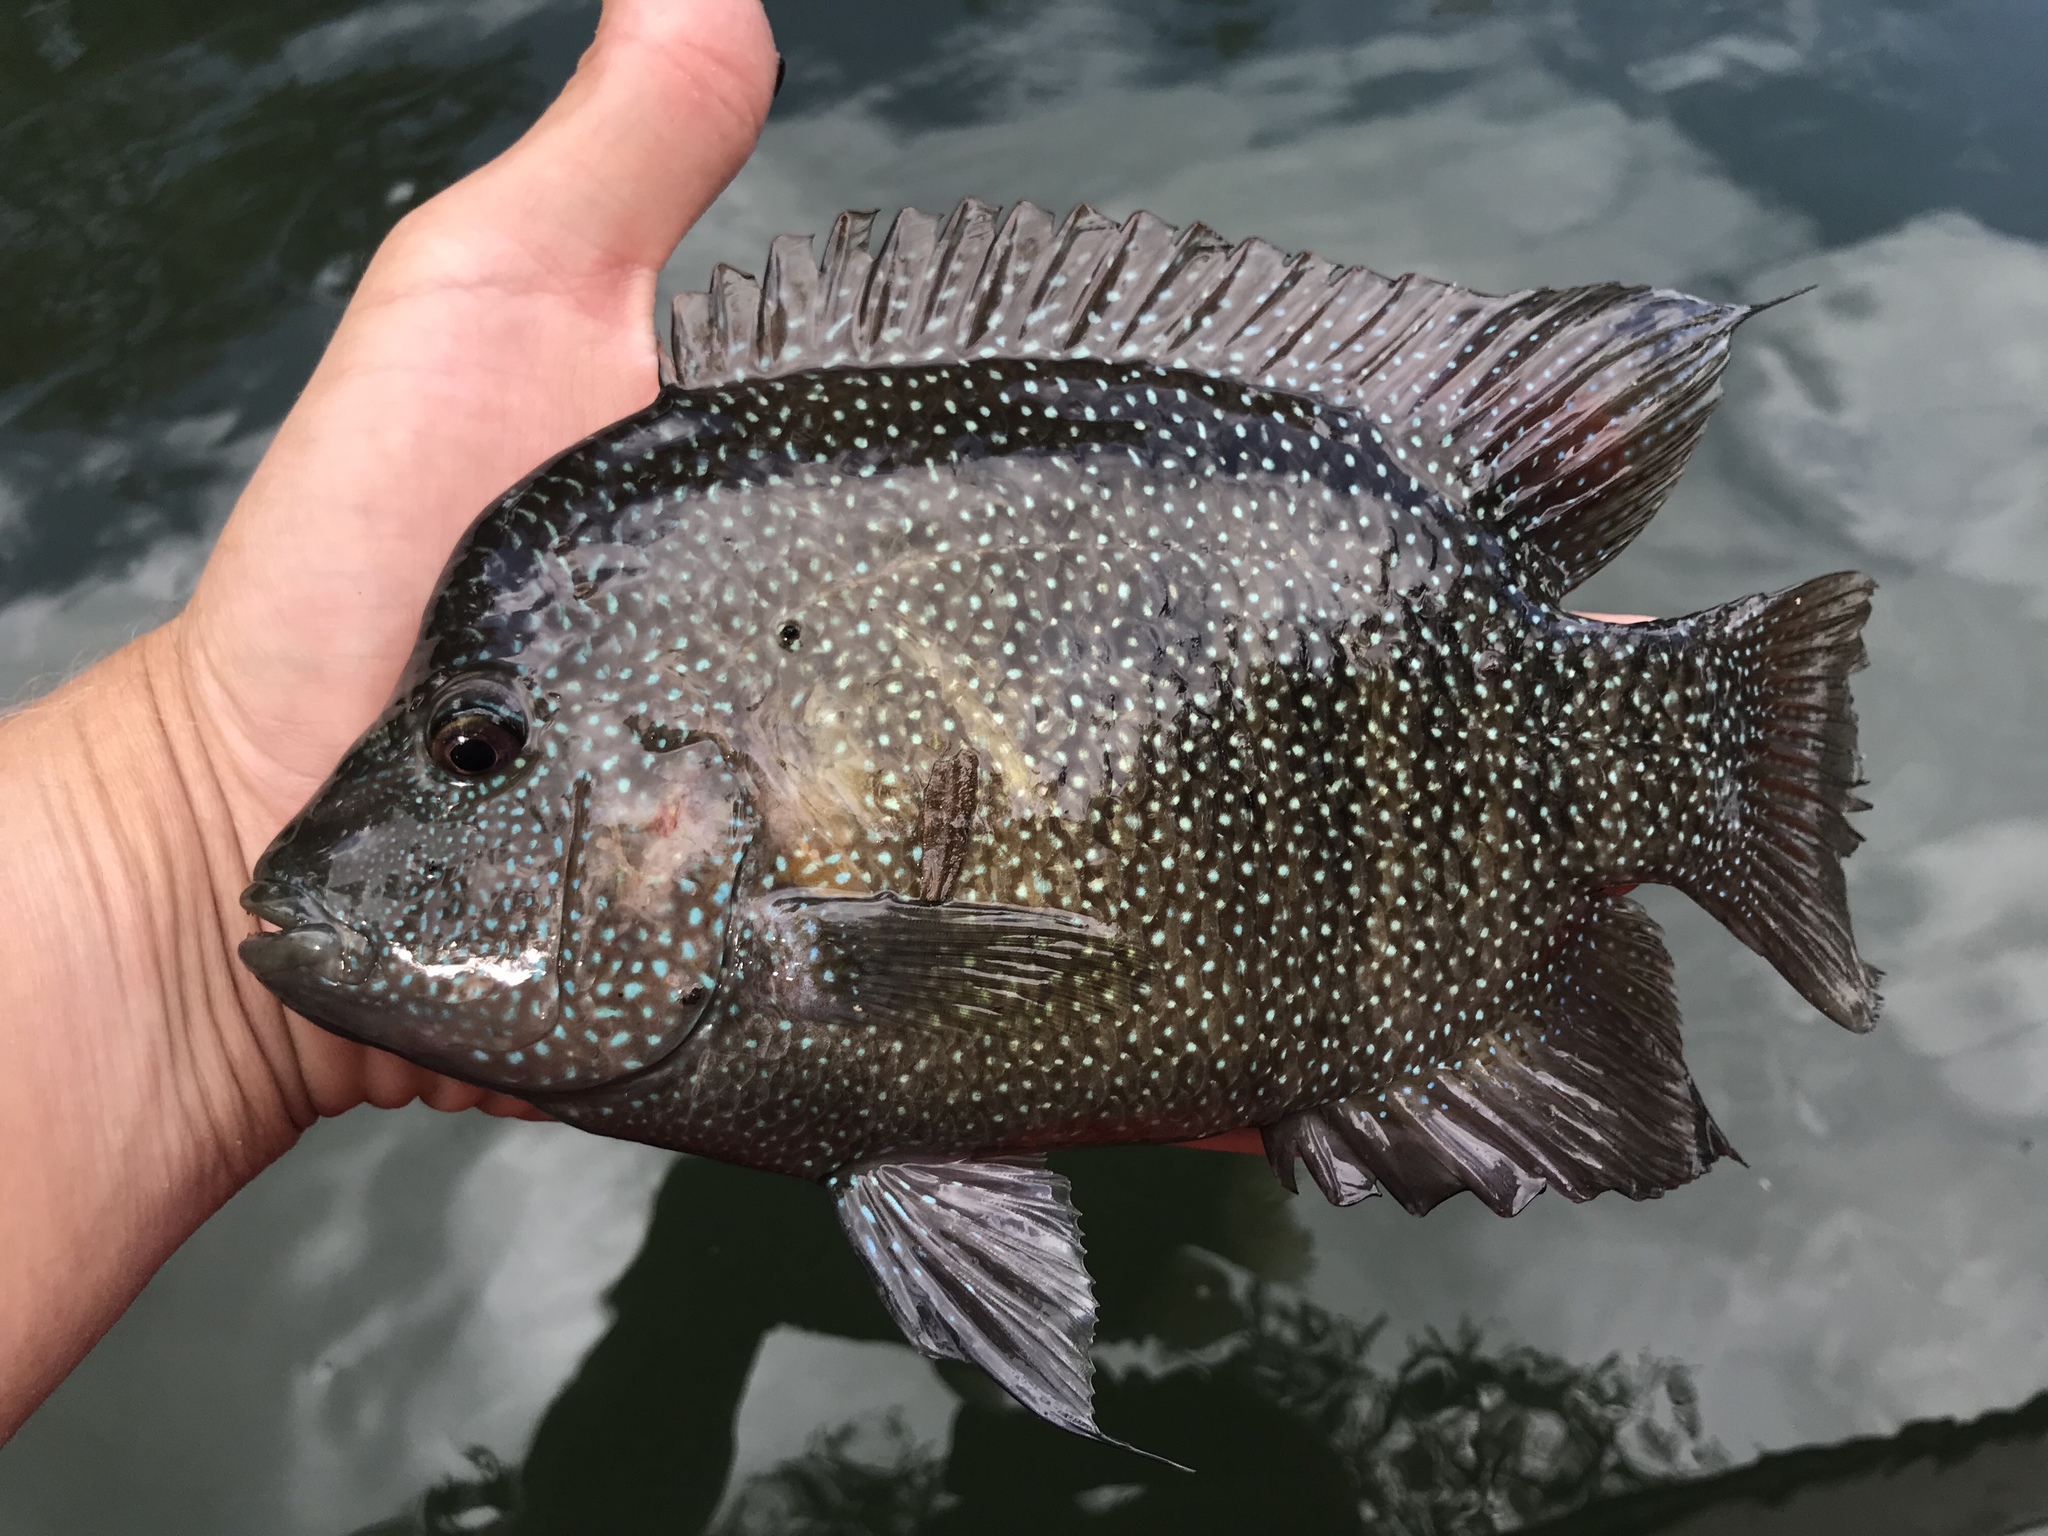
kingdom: Animalia
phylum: Chordata
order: Perciformes
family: Cichlidae
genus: Herichthys
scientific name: Herichthys cyanoguttatus
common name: Rio grande cichlid
